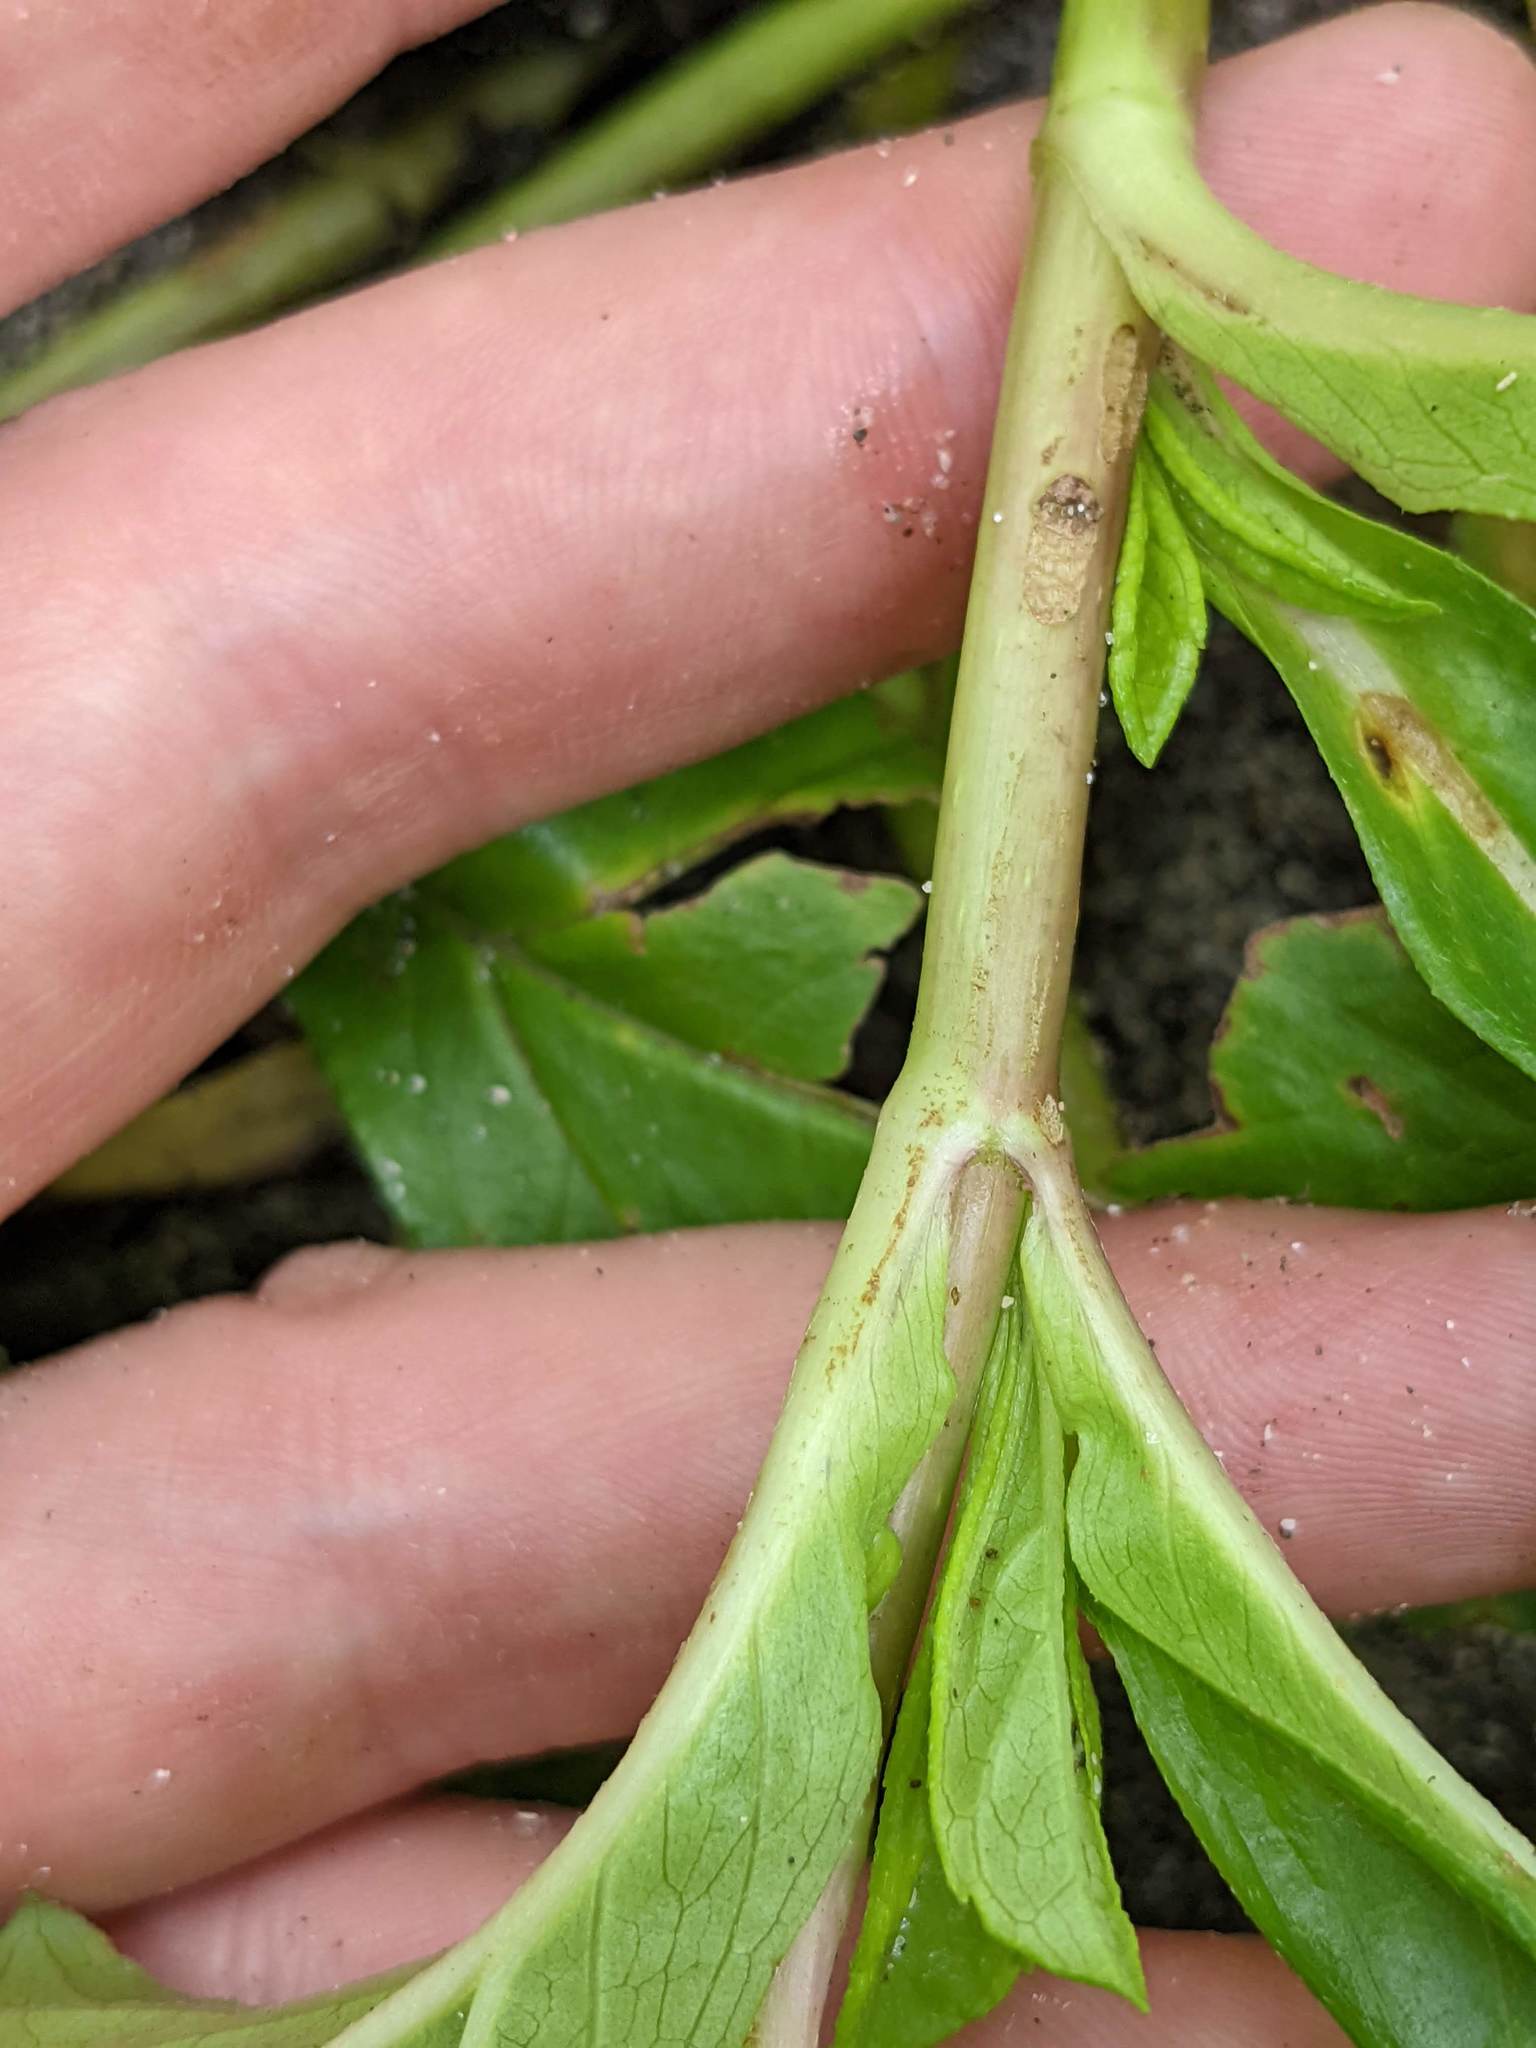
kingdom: Plantae
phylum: Tracheophyta
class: Magnoliopsida
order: Asterales
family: Asteraceae
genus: Sphagneticola
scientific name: Sphagneticola trilobata
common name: Bay biscayne creeping-oxeye
